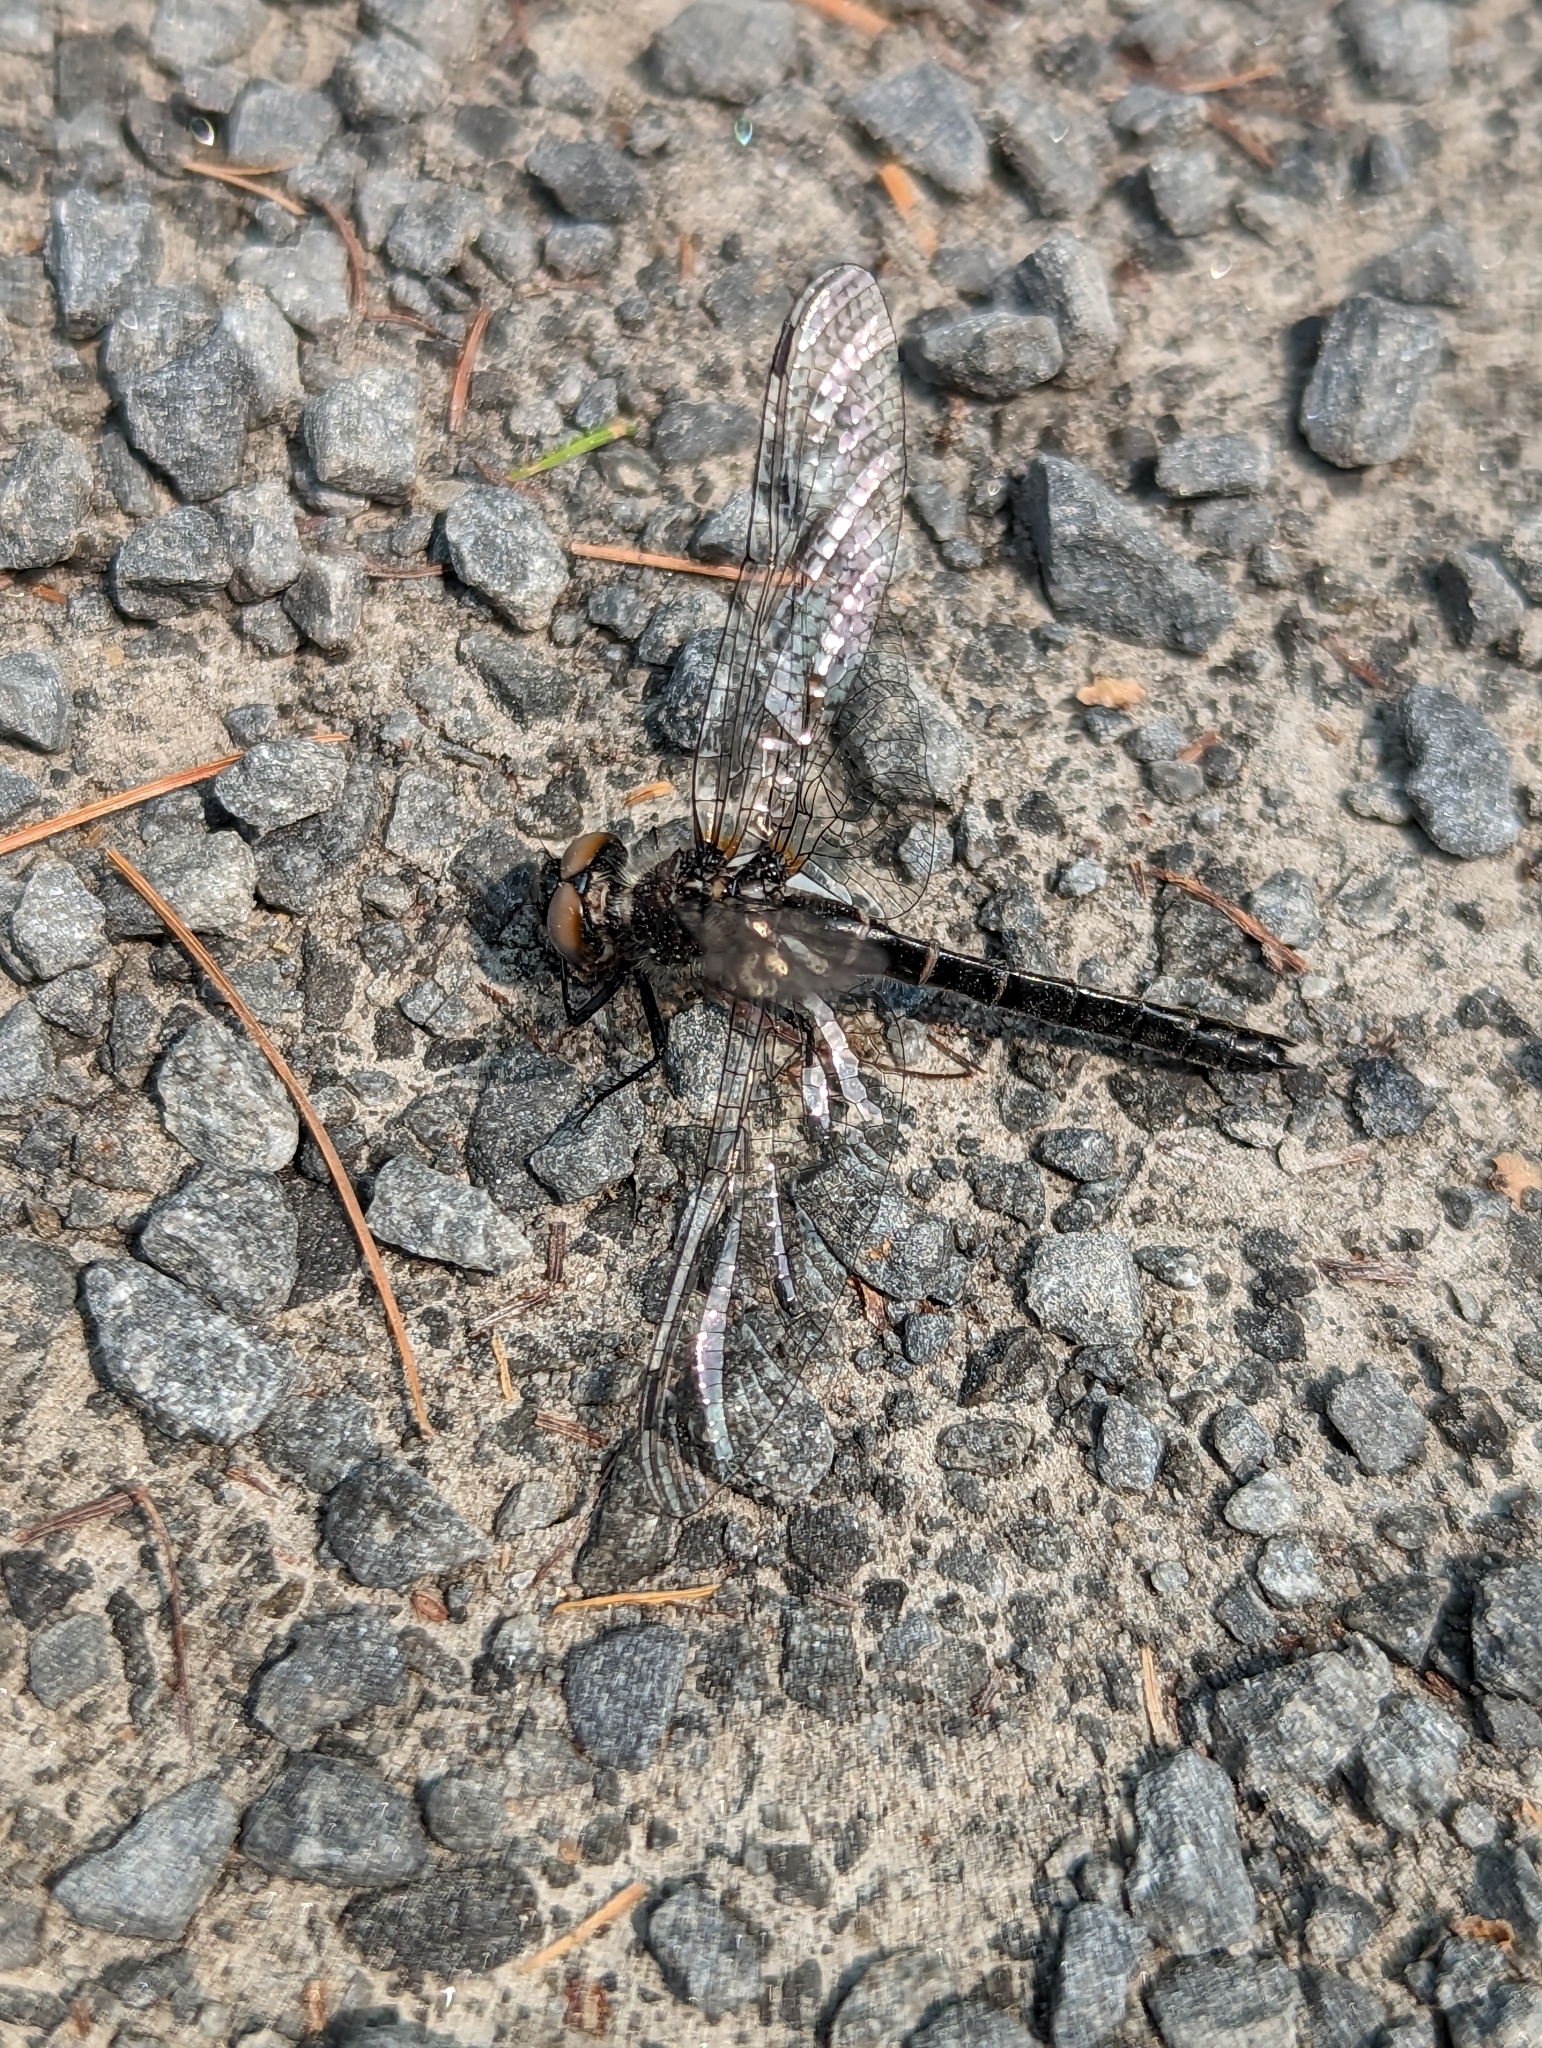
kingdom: Animalia
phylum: Arthropoda
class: Insecta
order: Odonata
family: Corduliidae
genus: Williamsonia
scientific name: Williamsonia fletcheri
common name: Ebony boghaunter
